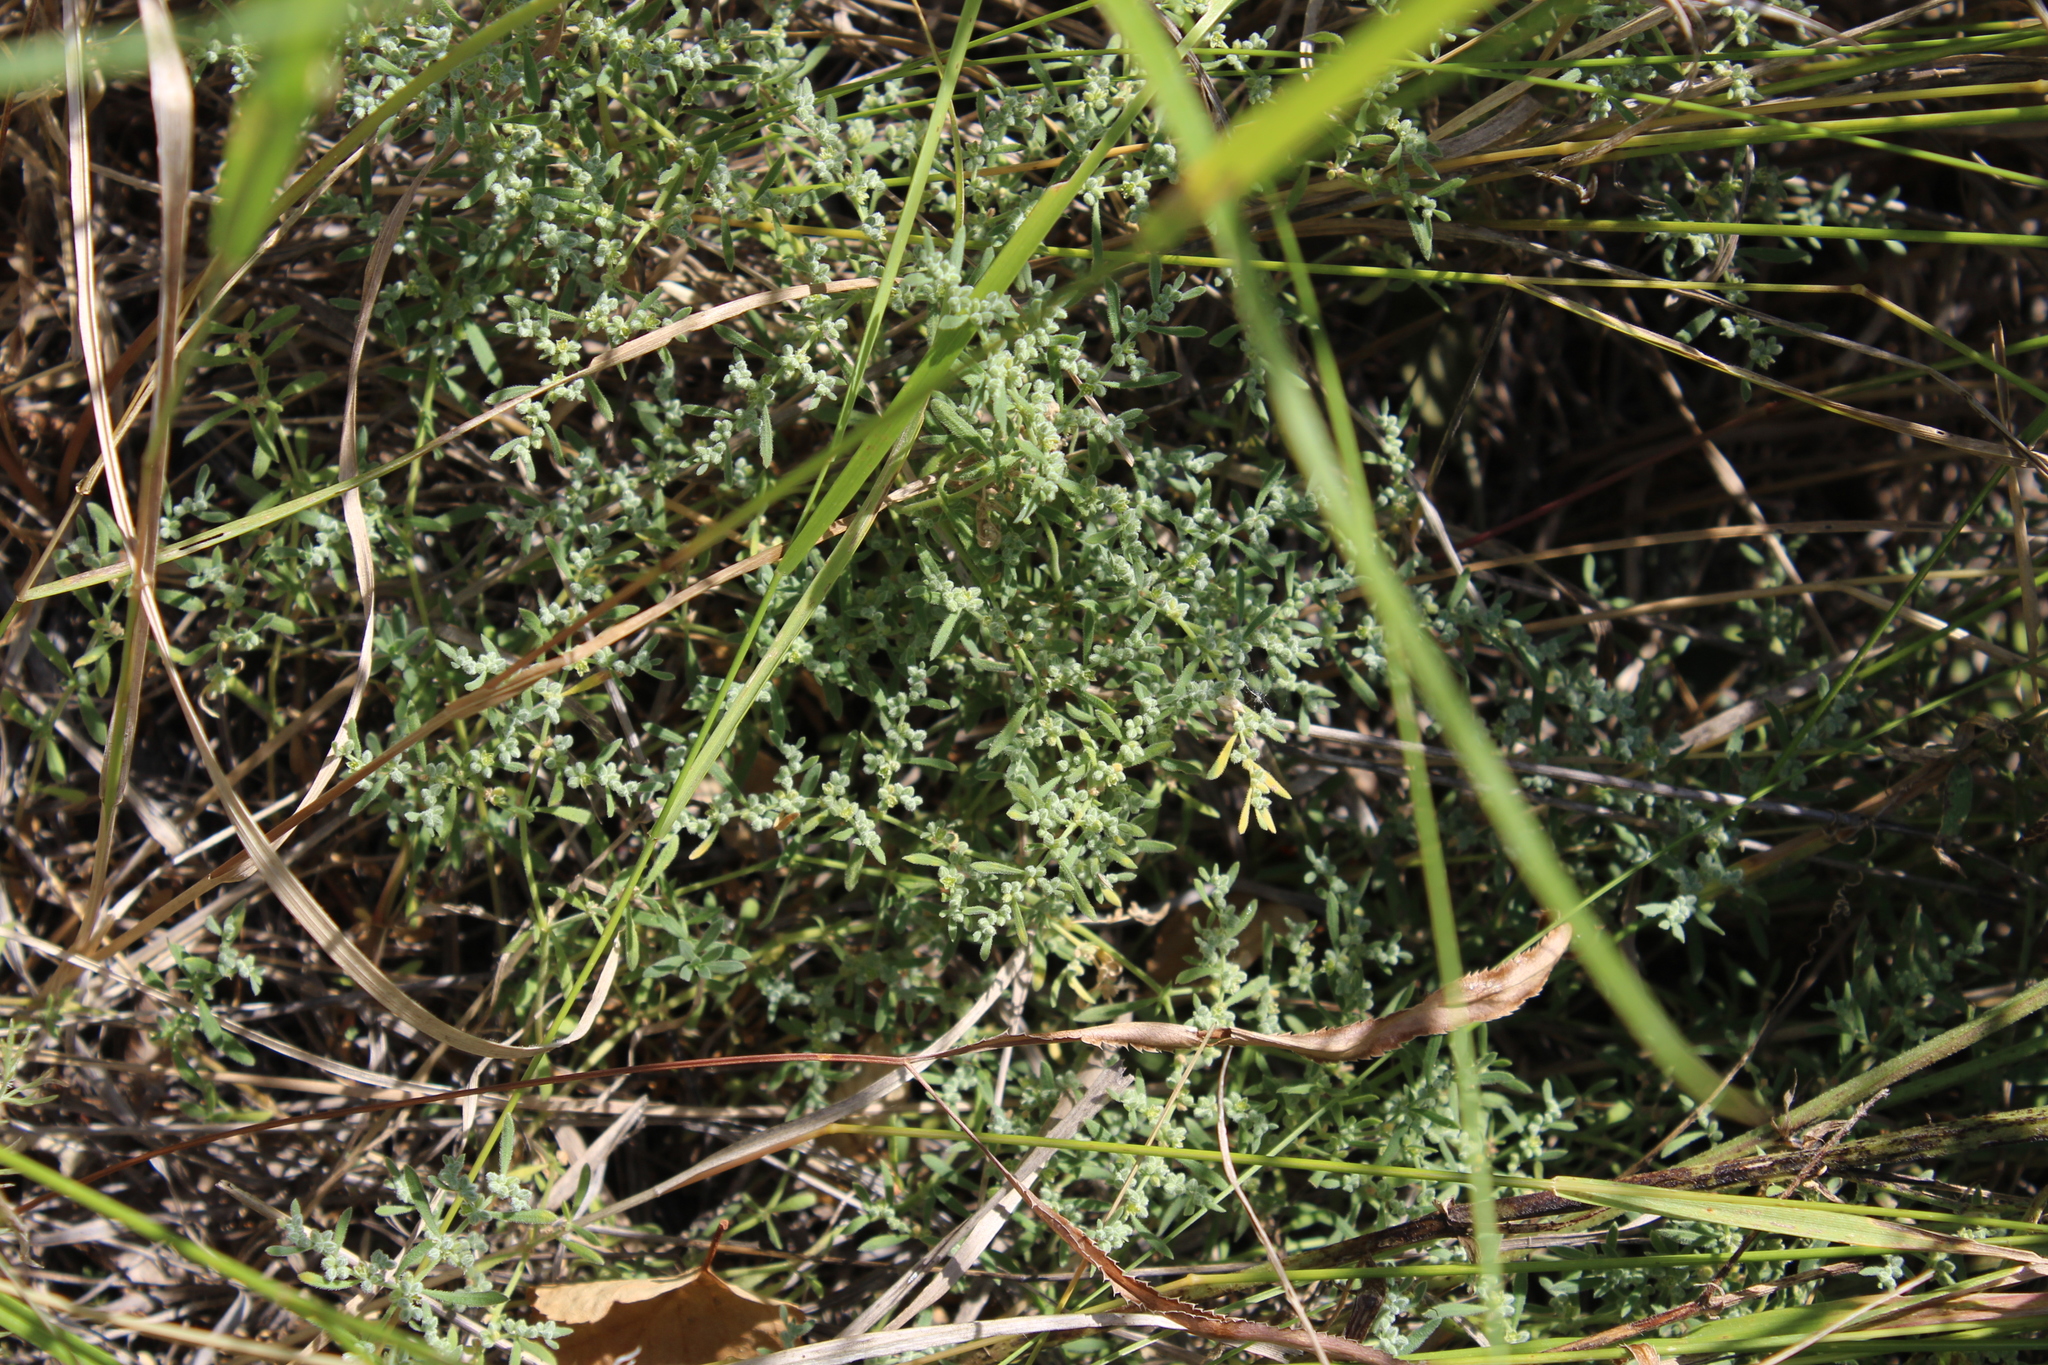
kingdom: Plantae
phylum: Tracheophyta
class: Magnoliopsida
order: Caryophyllales
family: Caryophyllaceae
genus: Herniaria
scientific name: Herniaria incana
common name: Gray rupturewort
